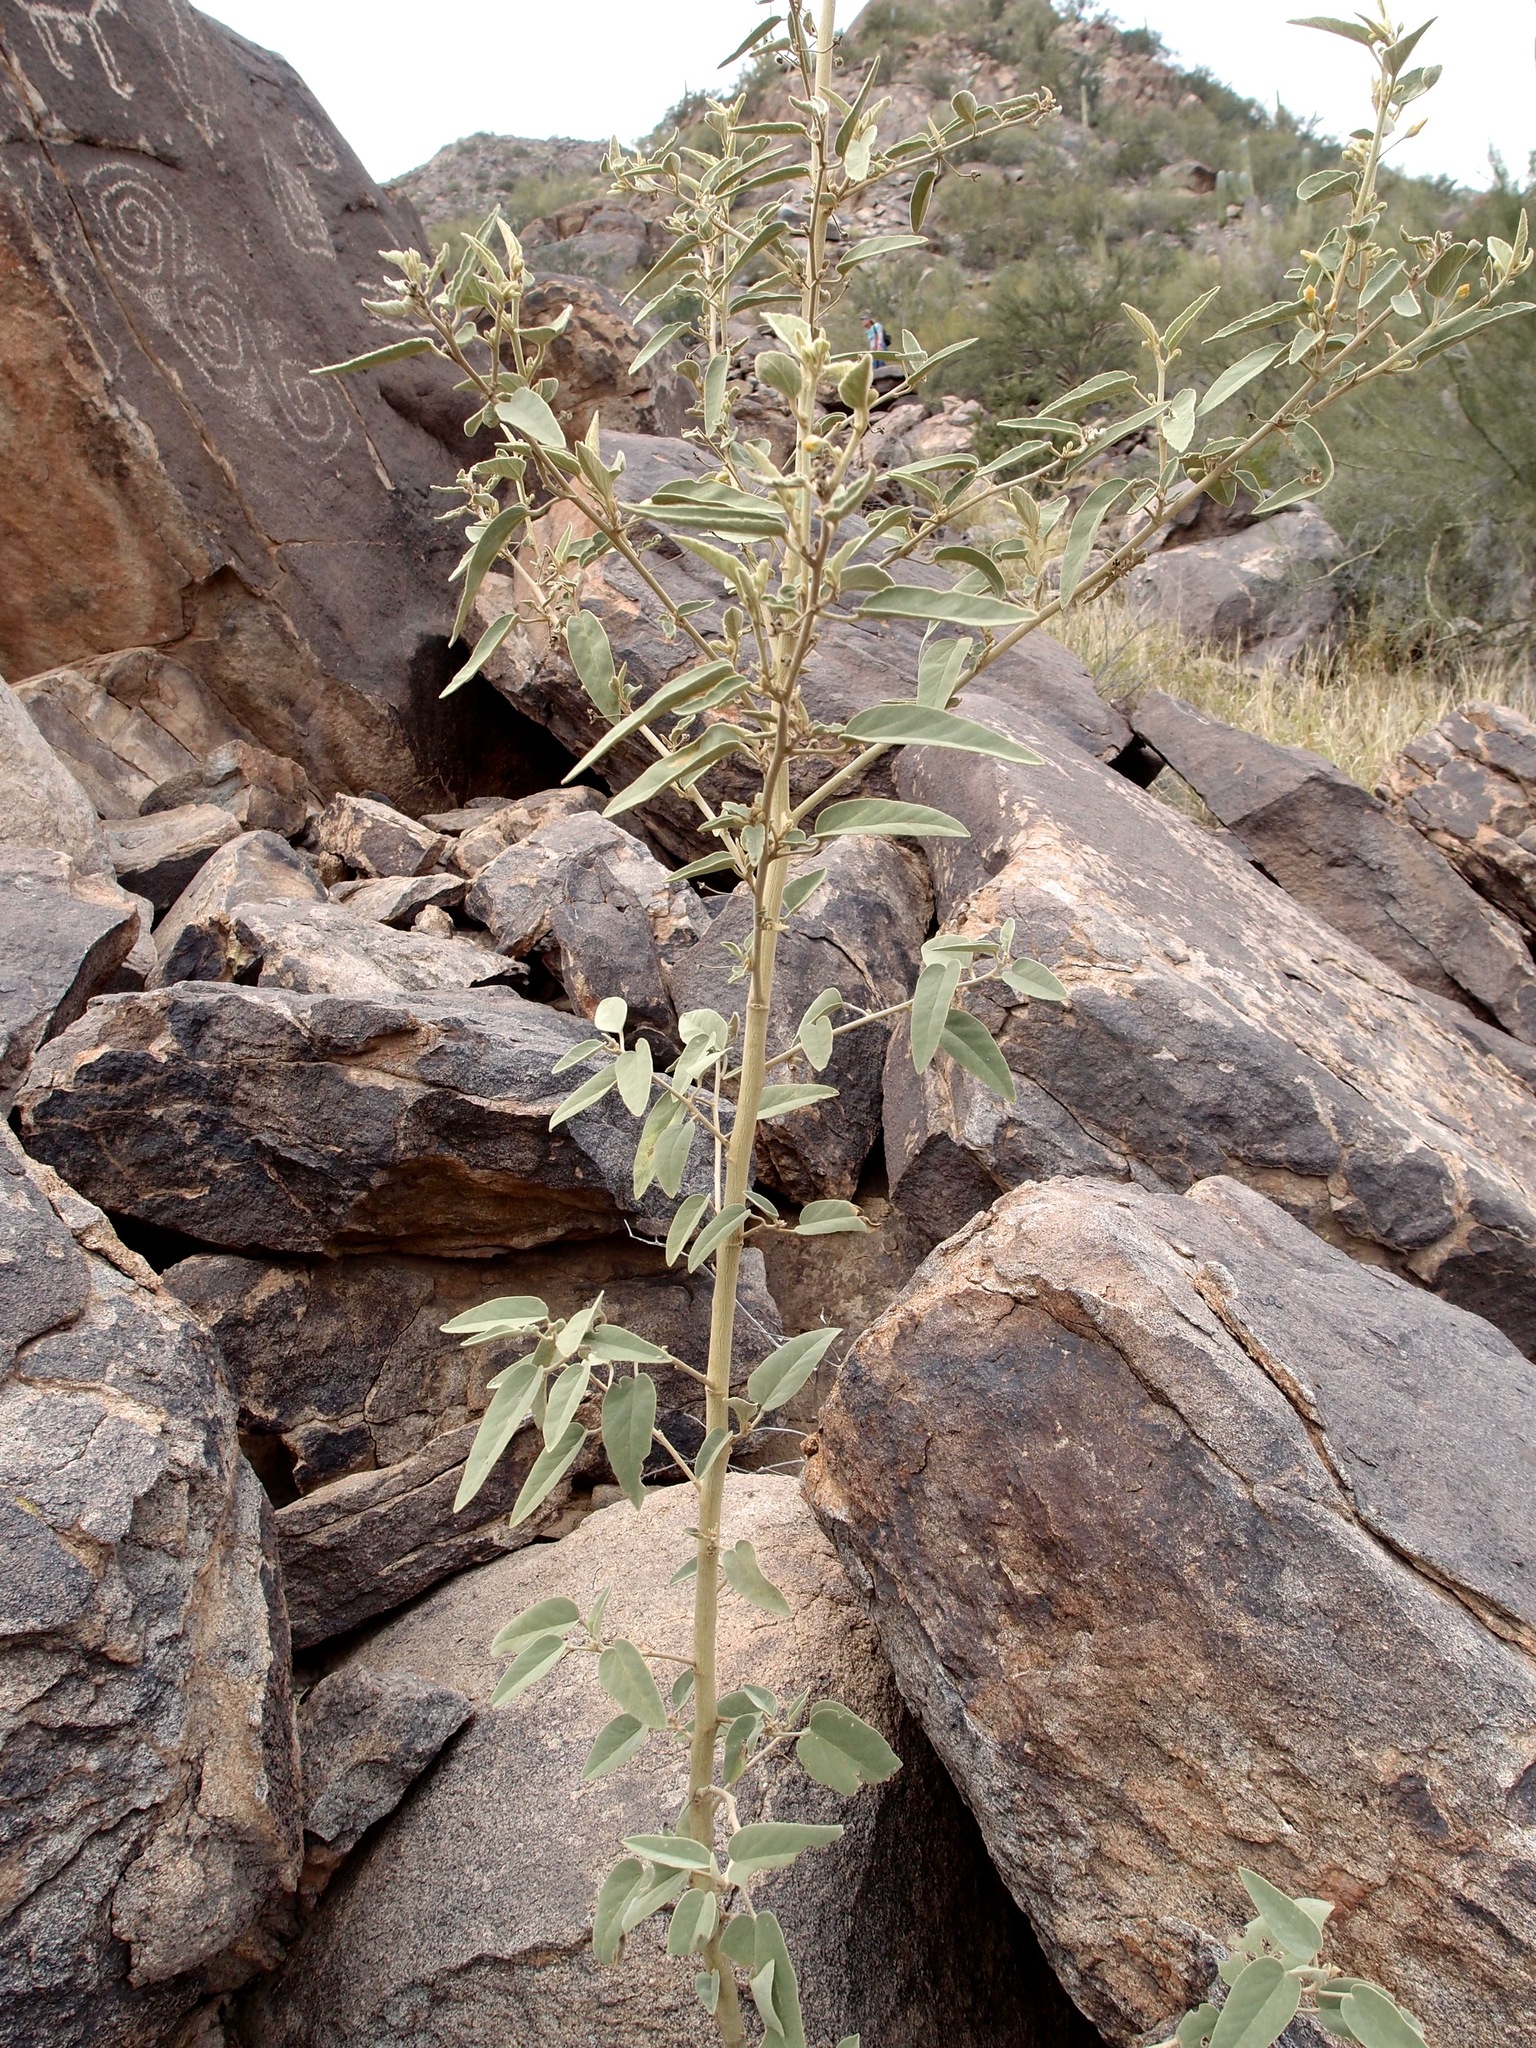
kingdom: Plantae
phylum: Tracheophyta
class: Magnoliopsida
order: Malvales
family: Malvaceae
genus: Horsfordia
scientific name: Horsfordia newberryi
